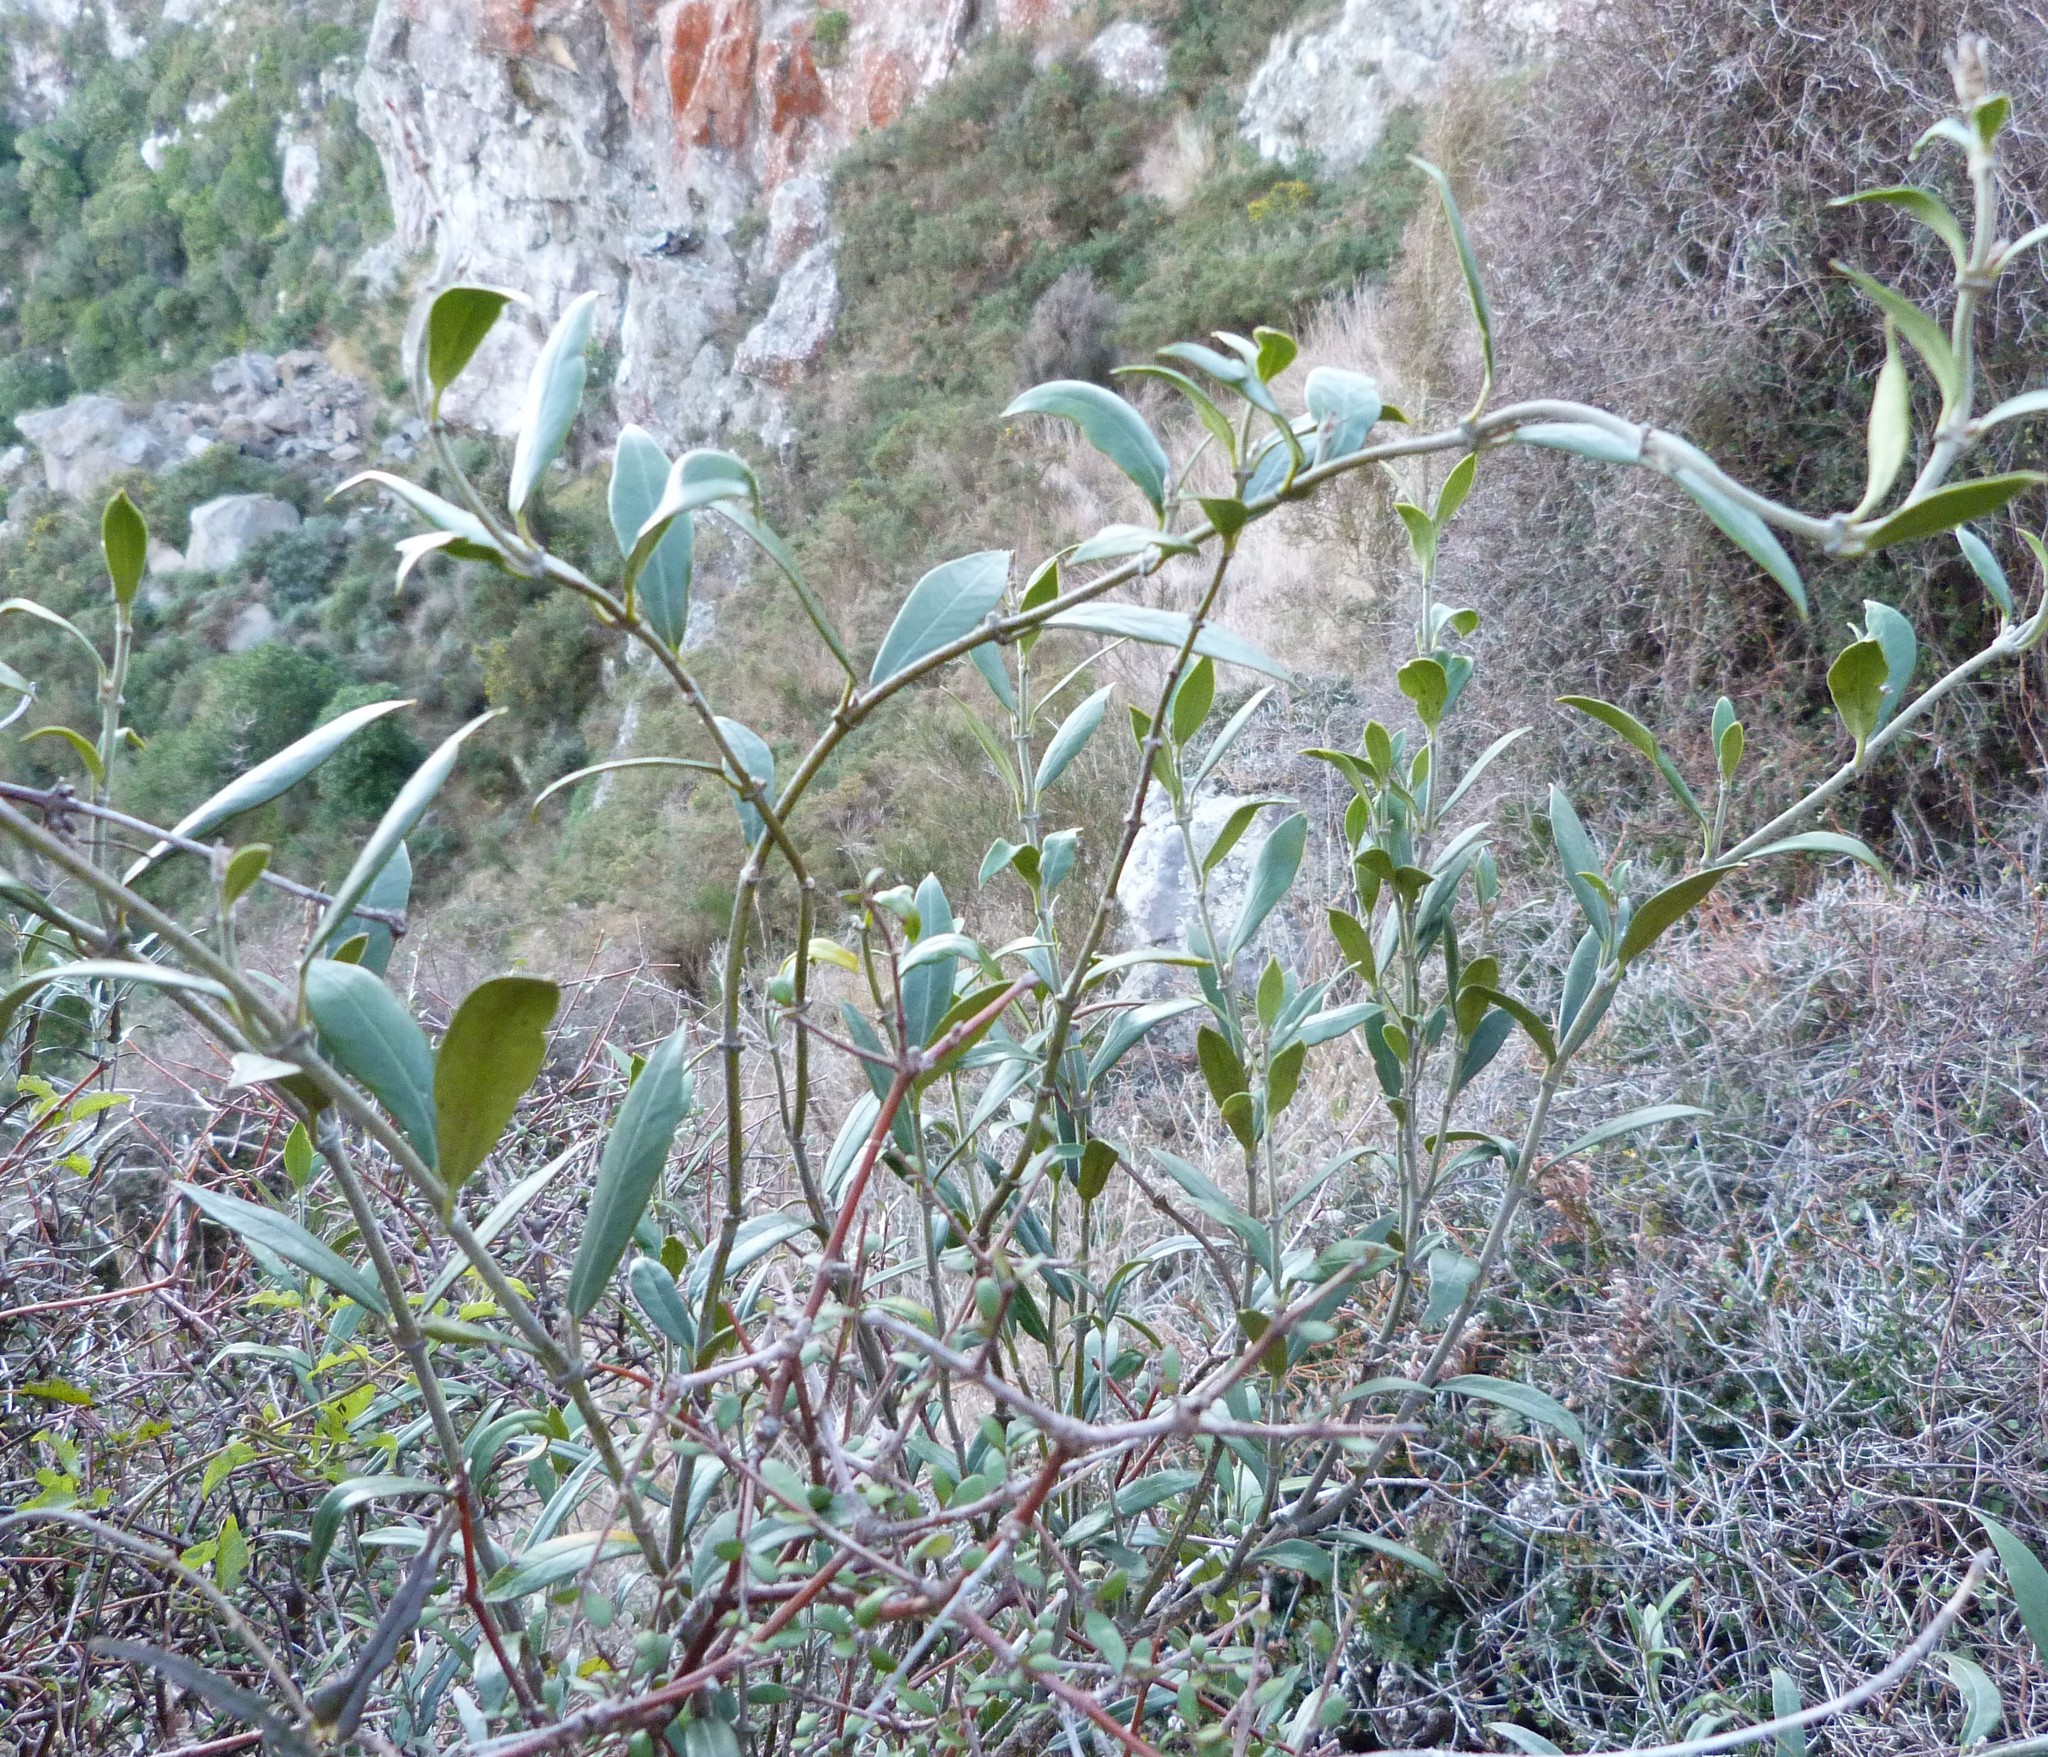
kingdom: Plantae
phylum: Tracheophyta
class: Magnoliopsida
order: Gentianales
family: Apocynaceae
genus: Parsonsia
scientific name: Parsonsia heterophylla
